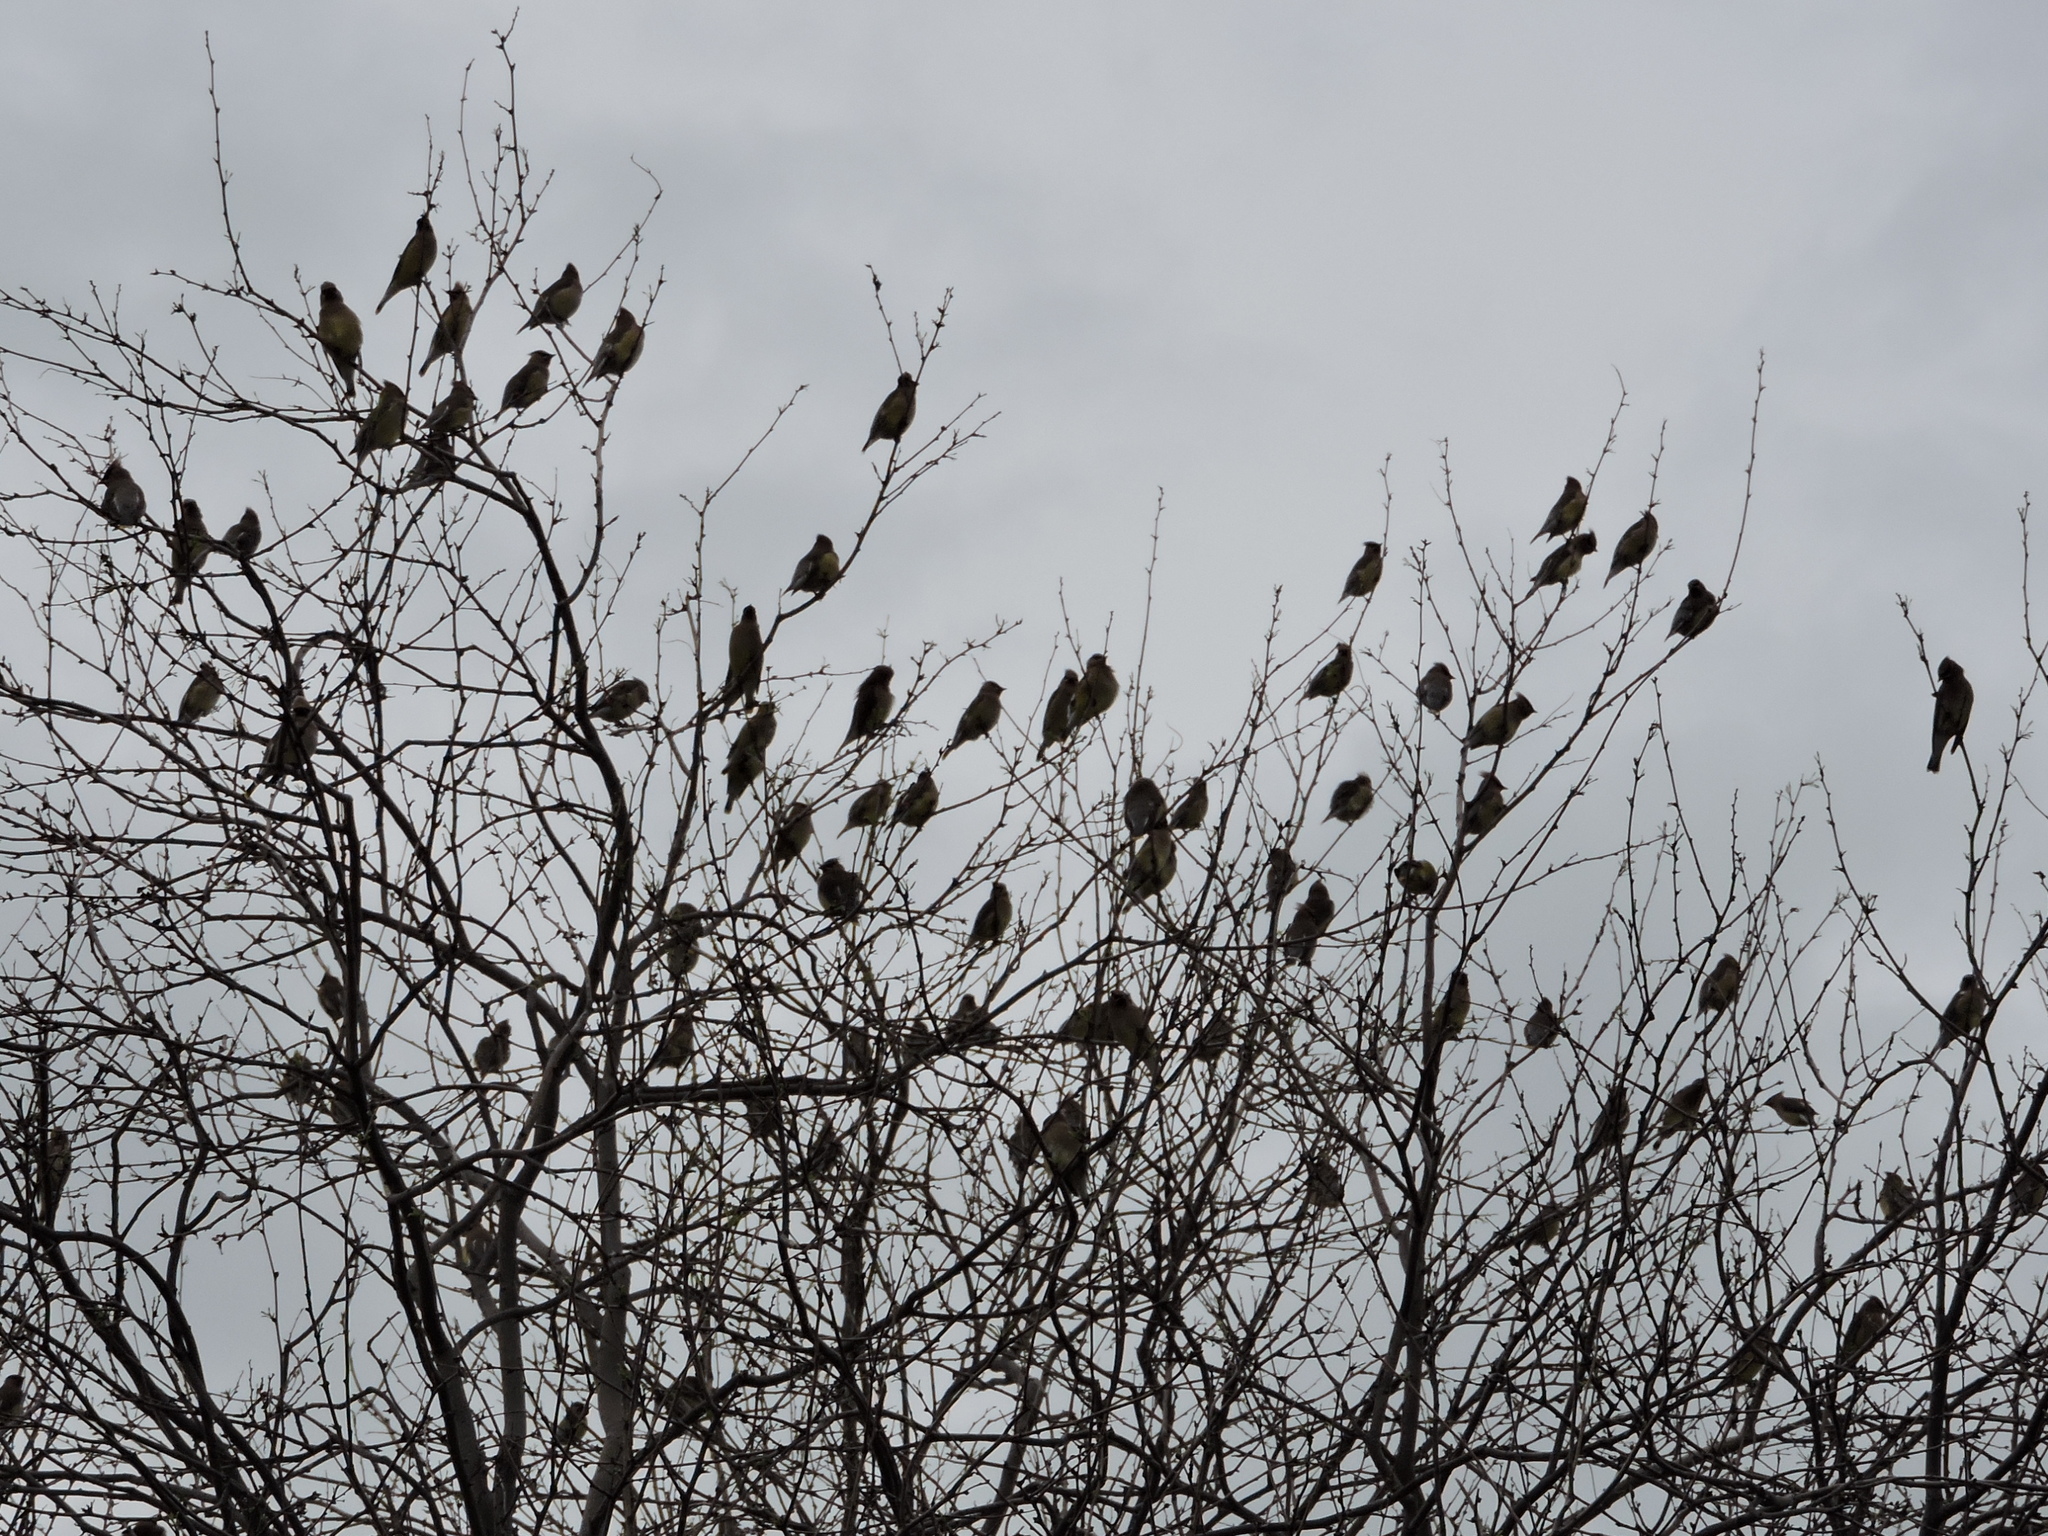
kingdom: Animalia
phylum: Chordata
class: Aves
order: Passeriformes
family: Bombycillidae
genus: Bombycilla
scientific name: Bombycilla cedrorum
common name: Cedar waxwing
